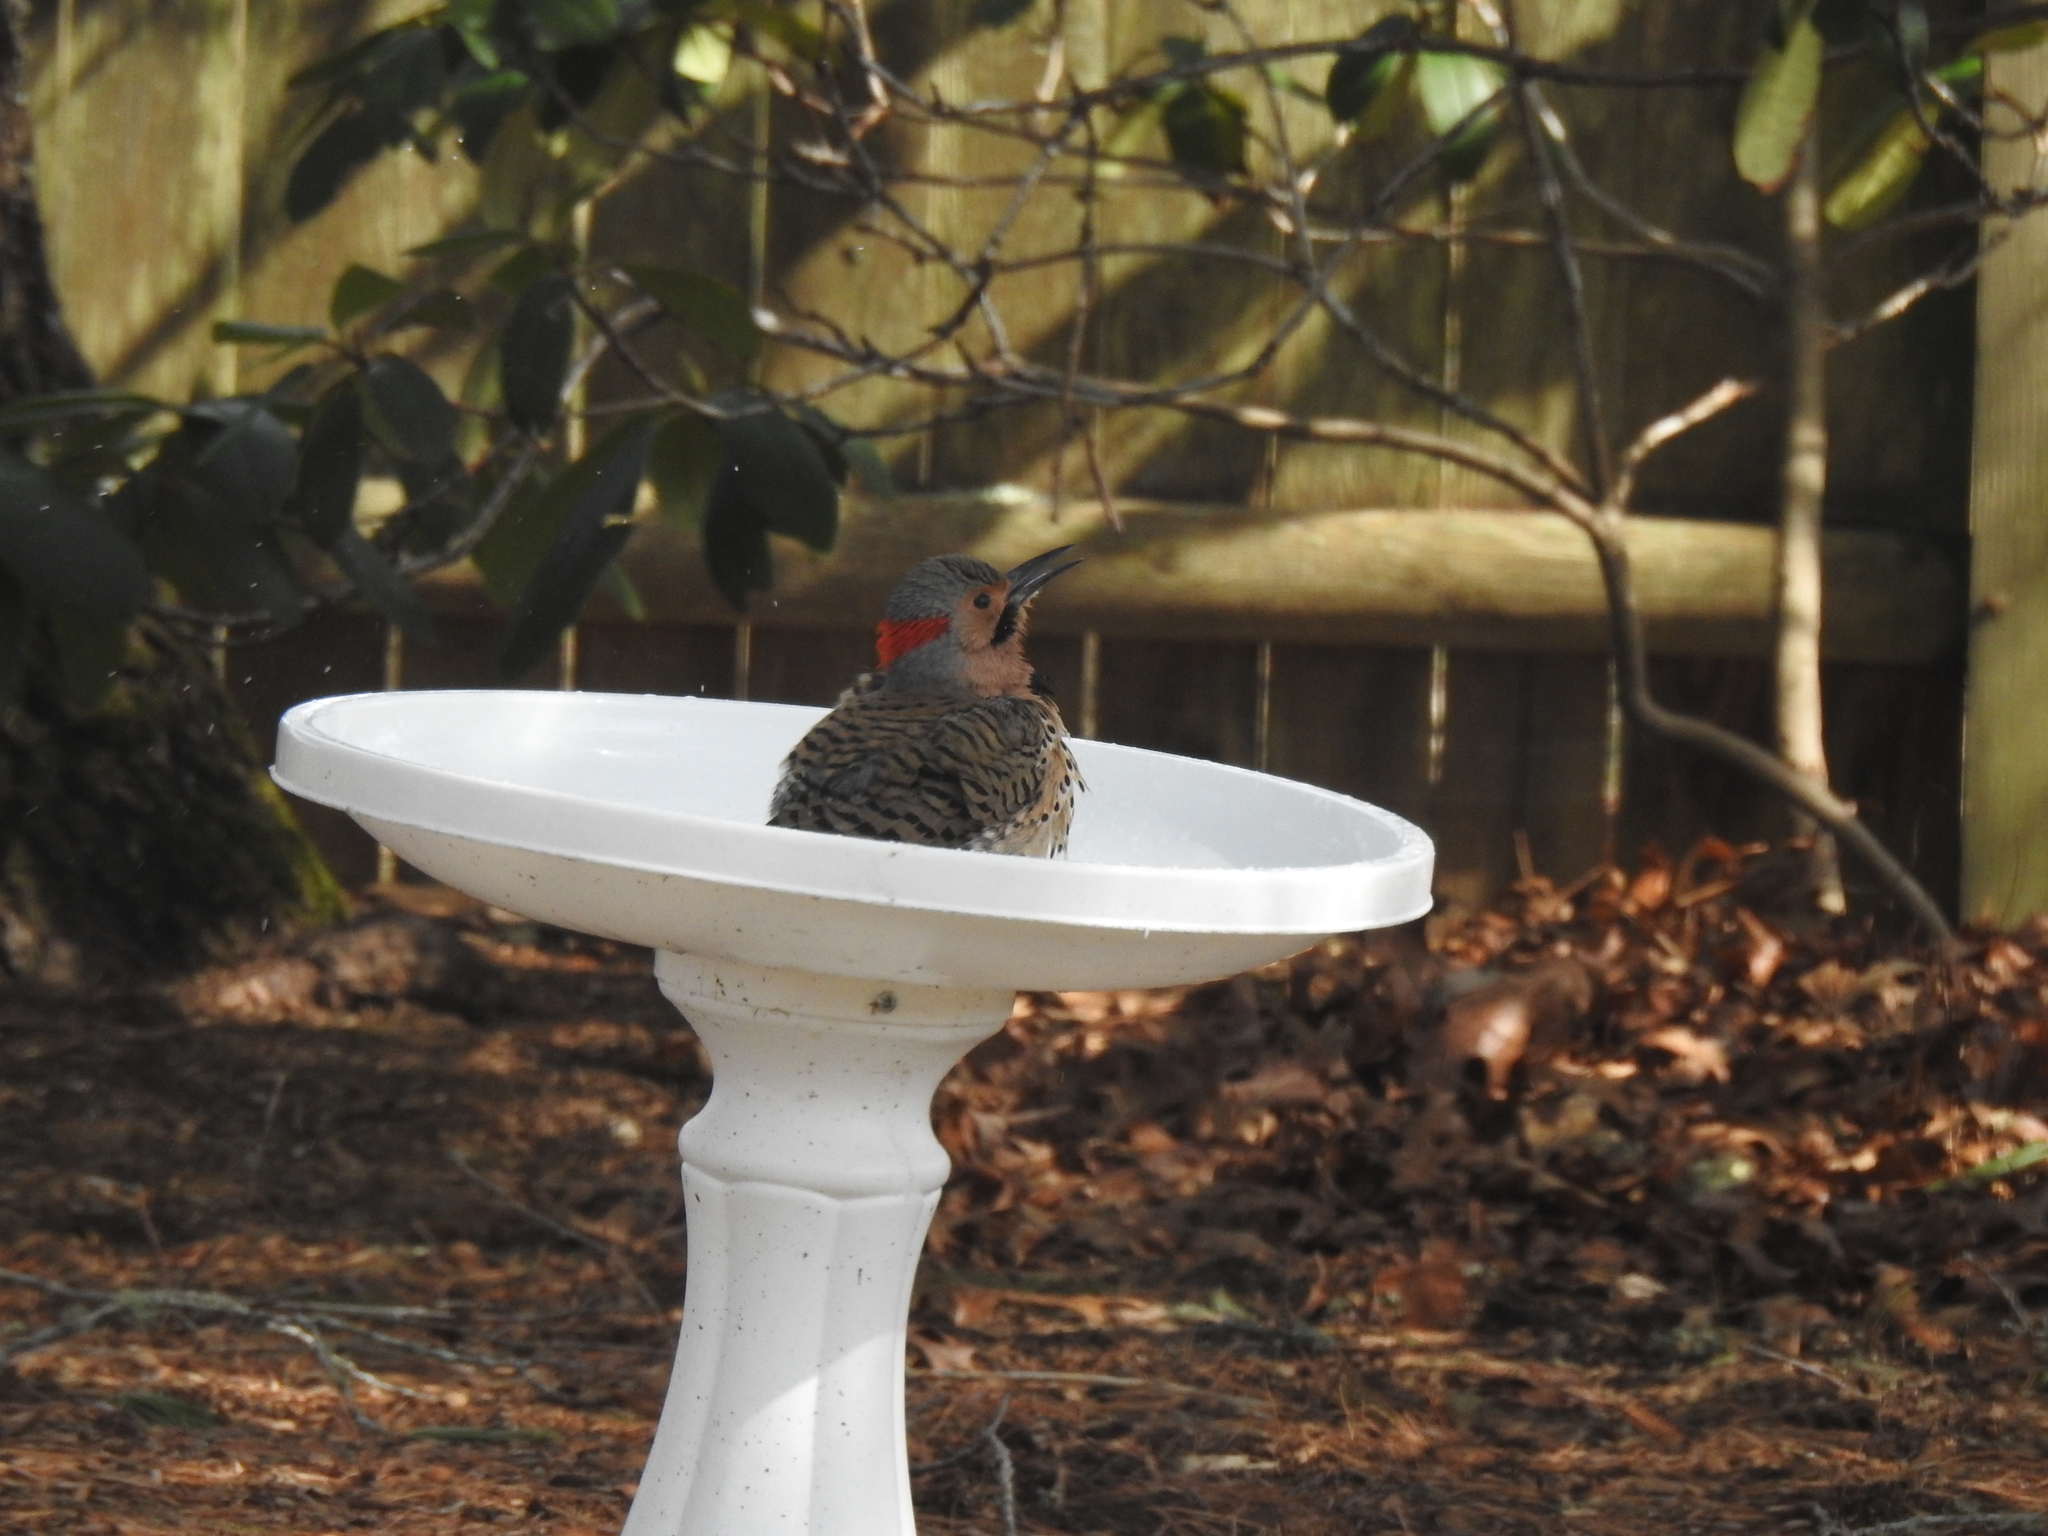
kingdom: Animalia
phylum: Chordata
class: Aves
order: Piciformes
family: Picidae
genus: Colaptes
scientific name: Colaptes auratus
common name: Northern flicker
